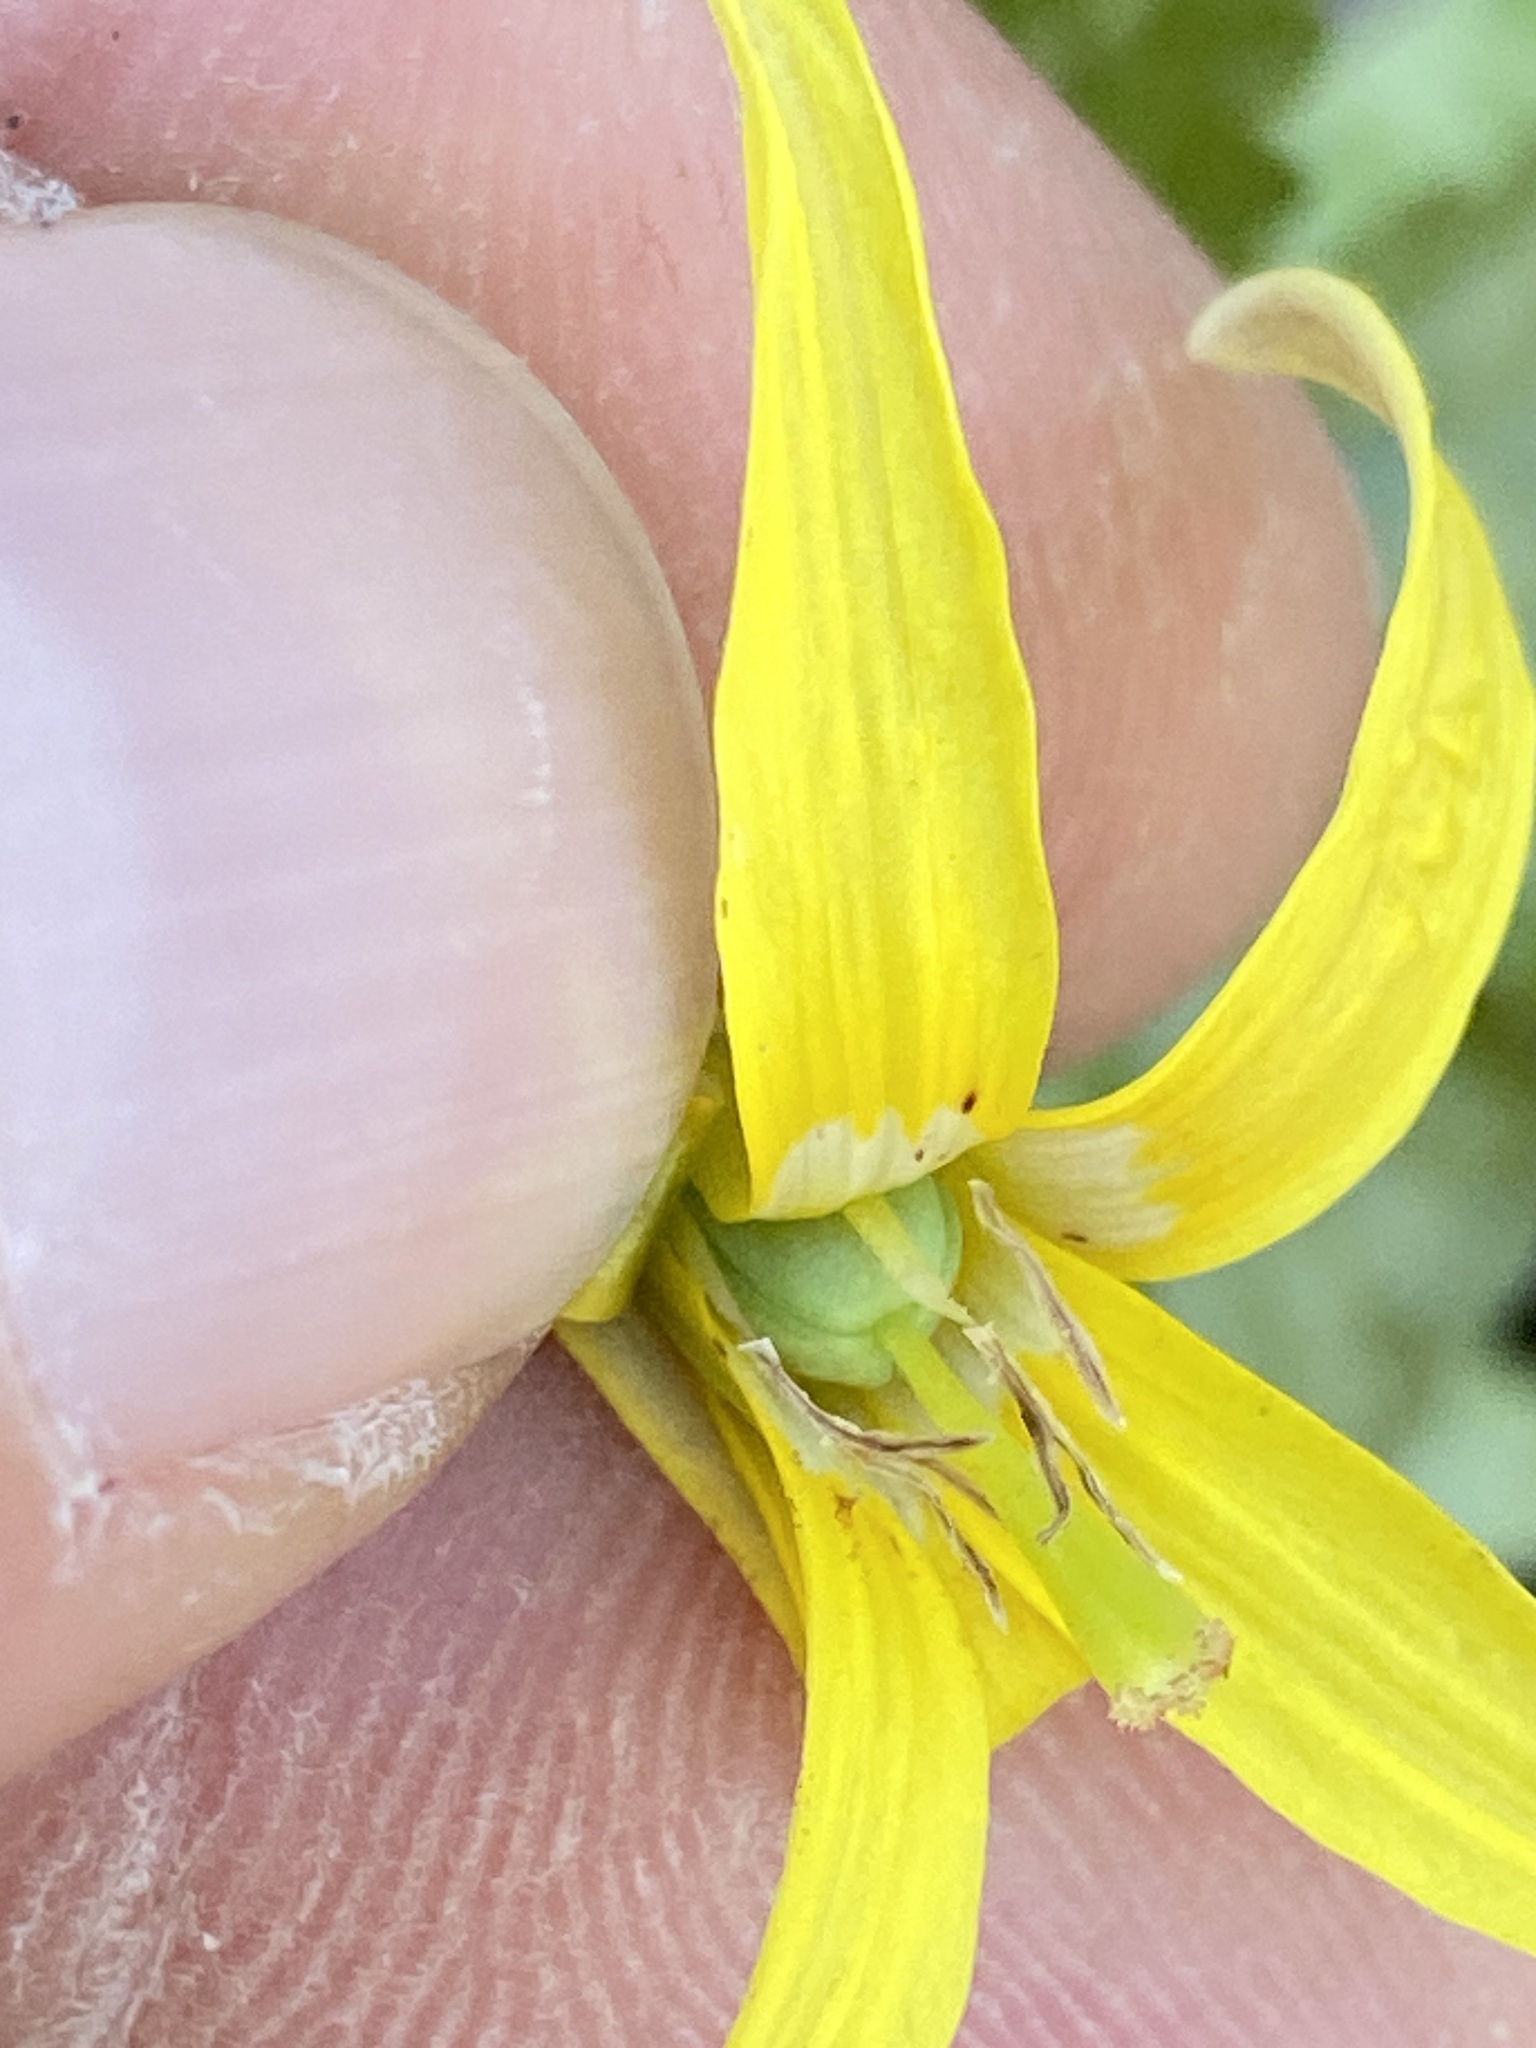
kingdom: Plantae
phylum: Tracheophyta
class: Liliopsida
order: Liliales
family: Liliaceae
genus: Erythronium
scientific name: Erythronium umbilicatum
